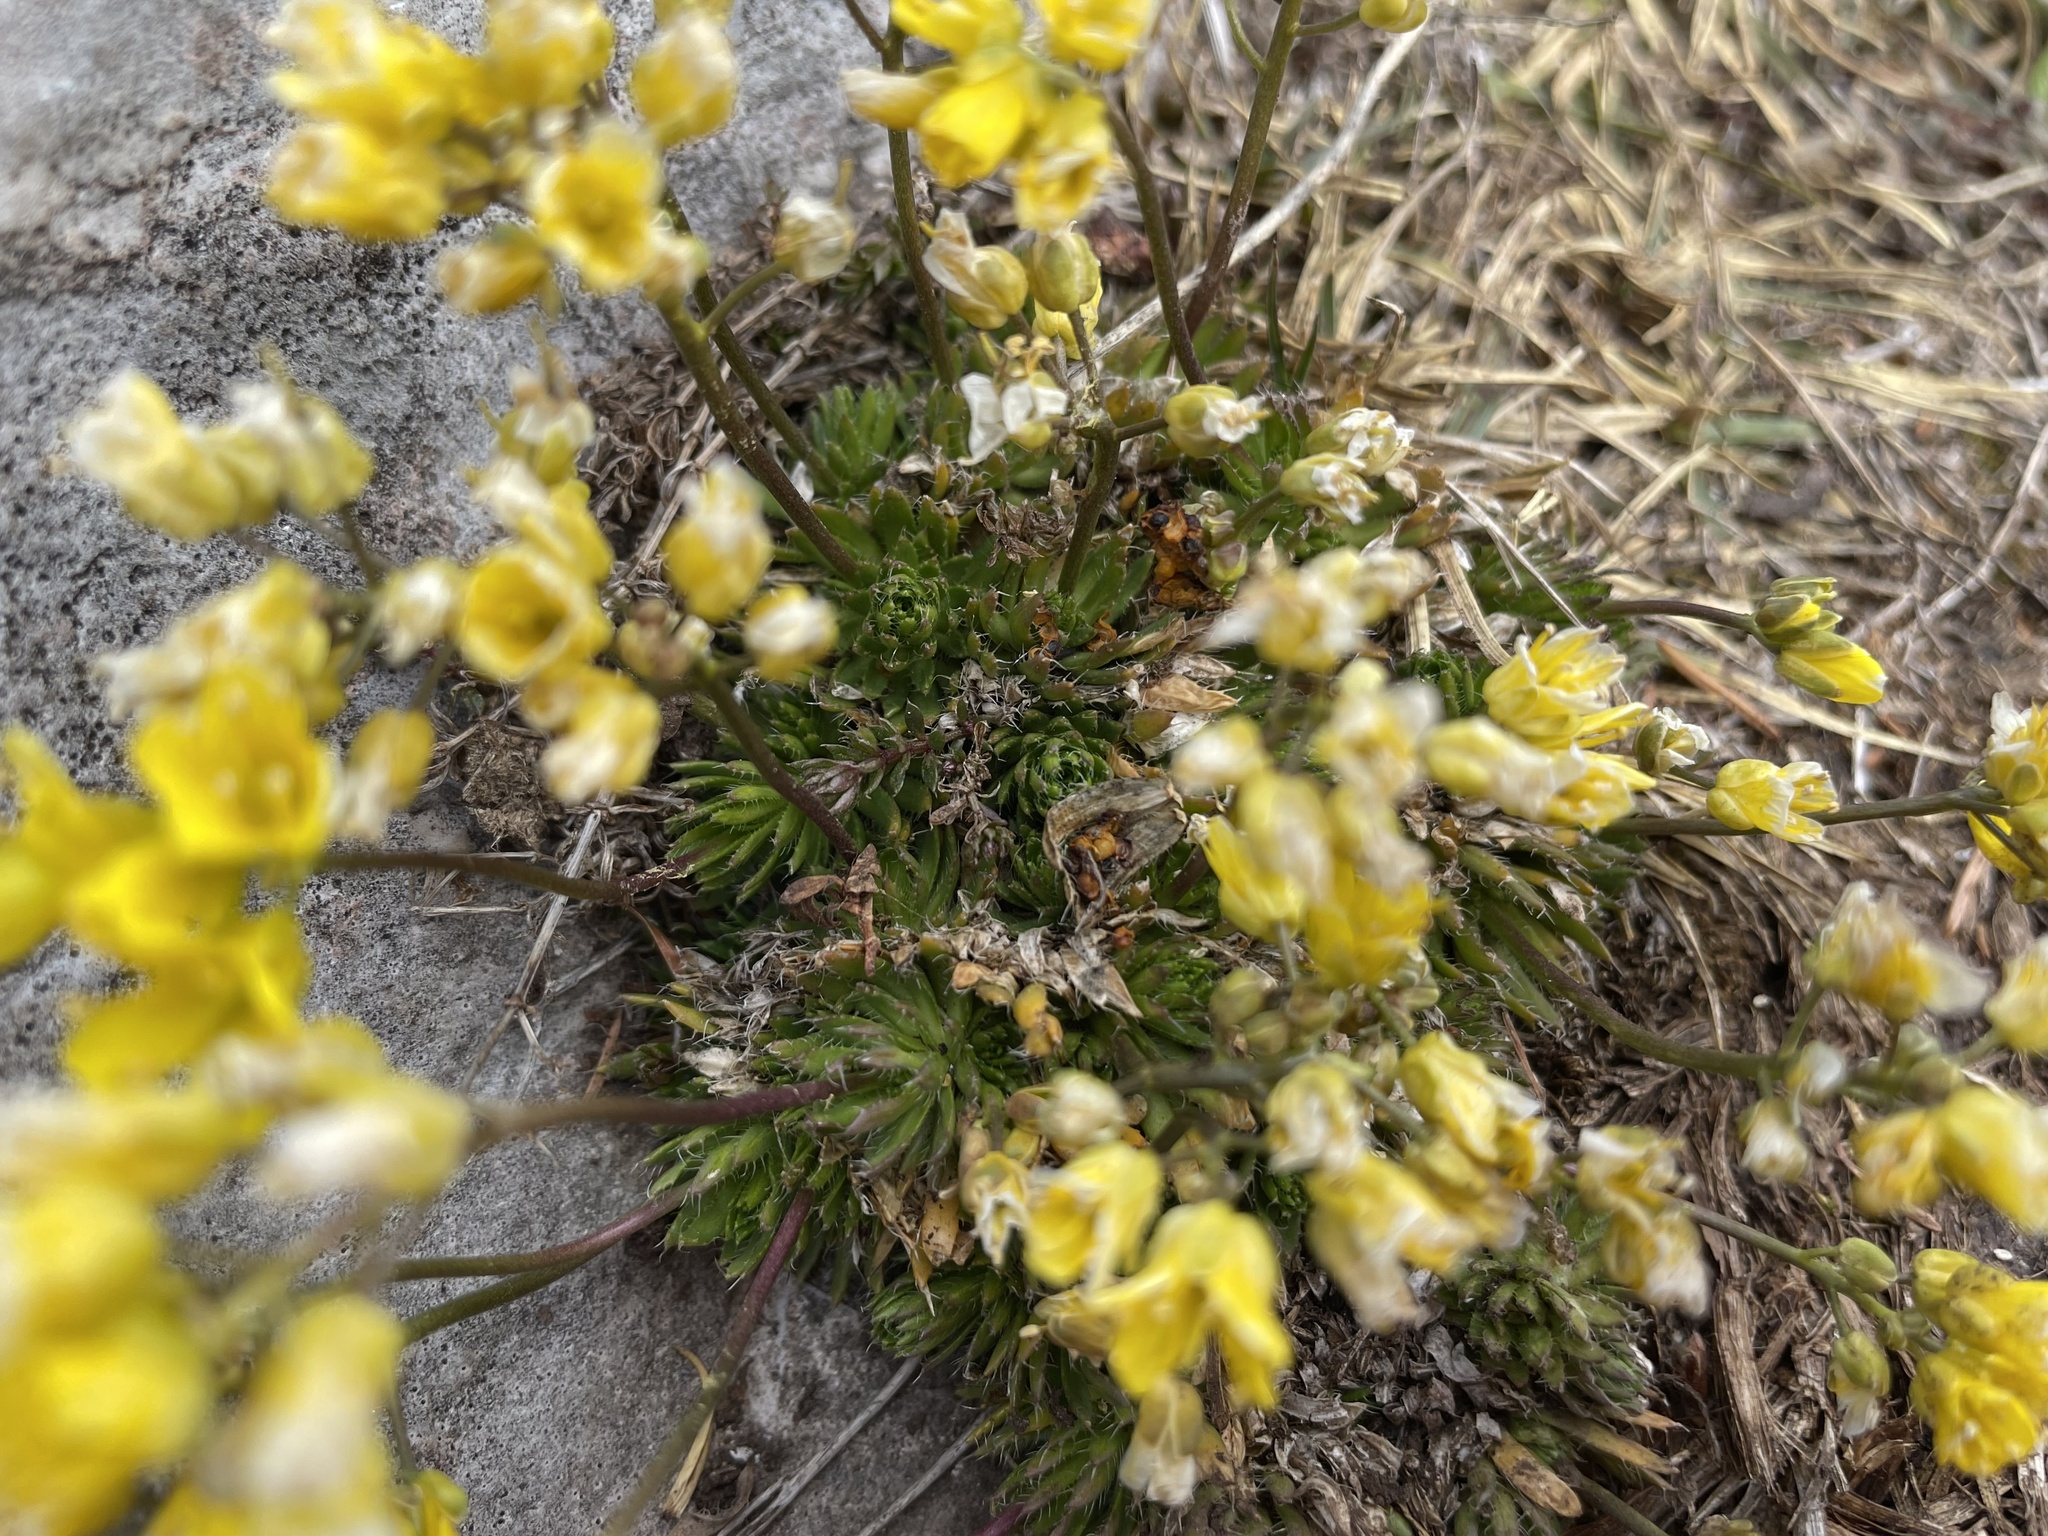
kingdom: Plantae
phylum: Tracheophyta
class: Magnoliopsida
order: Brassicales
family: Brassicaceae
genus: Draba
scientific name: Draba aizoides
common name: Yellow whitlowgrass
